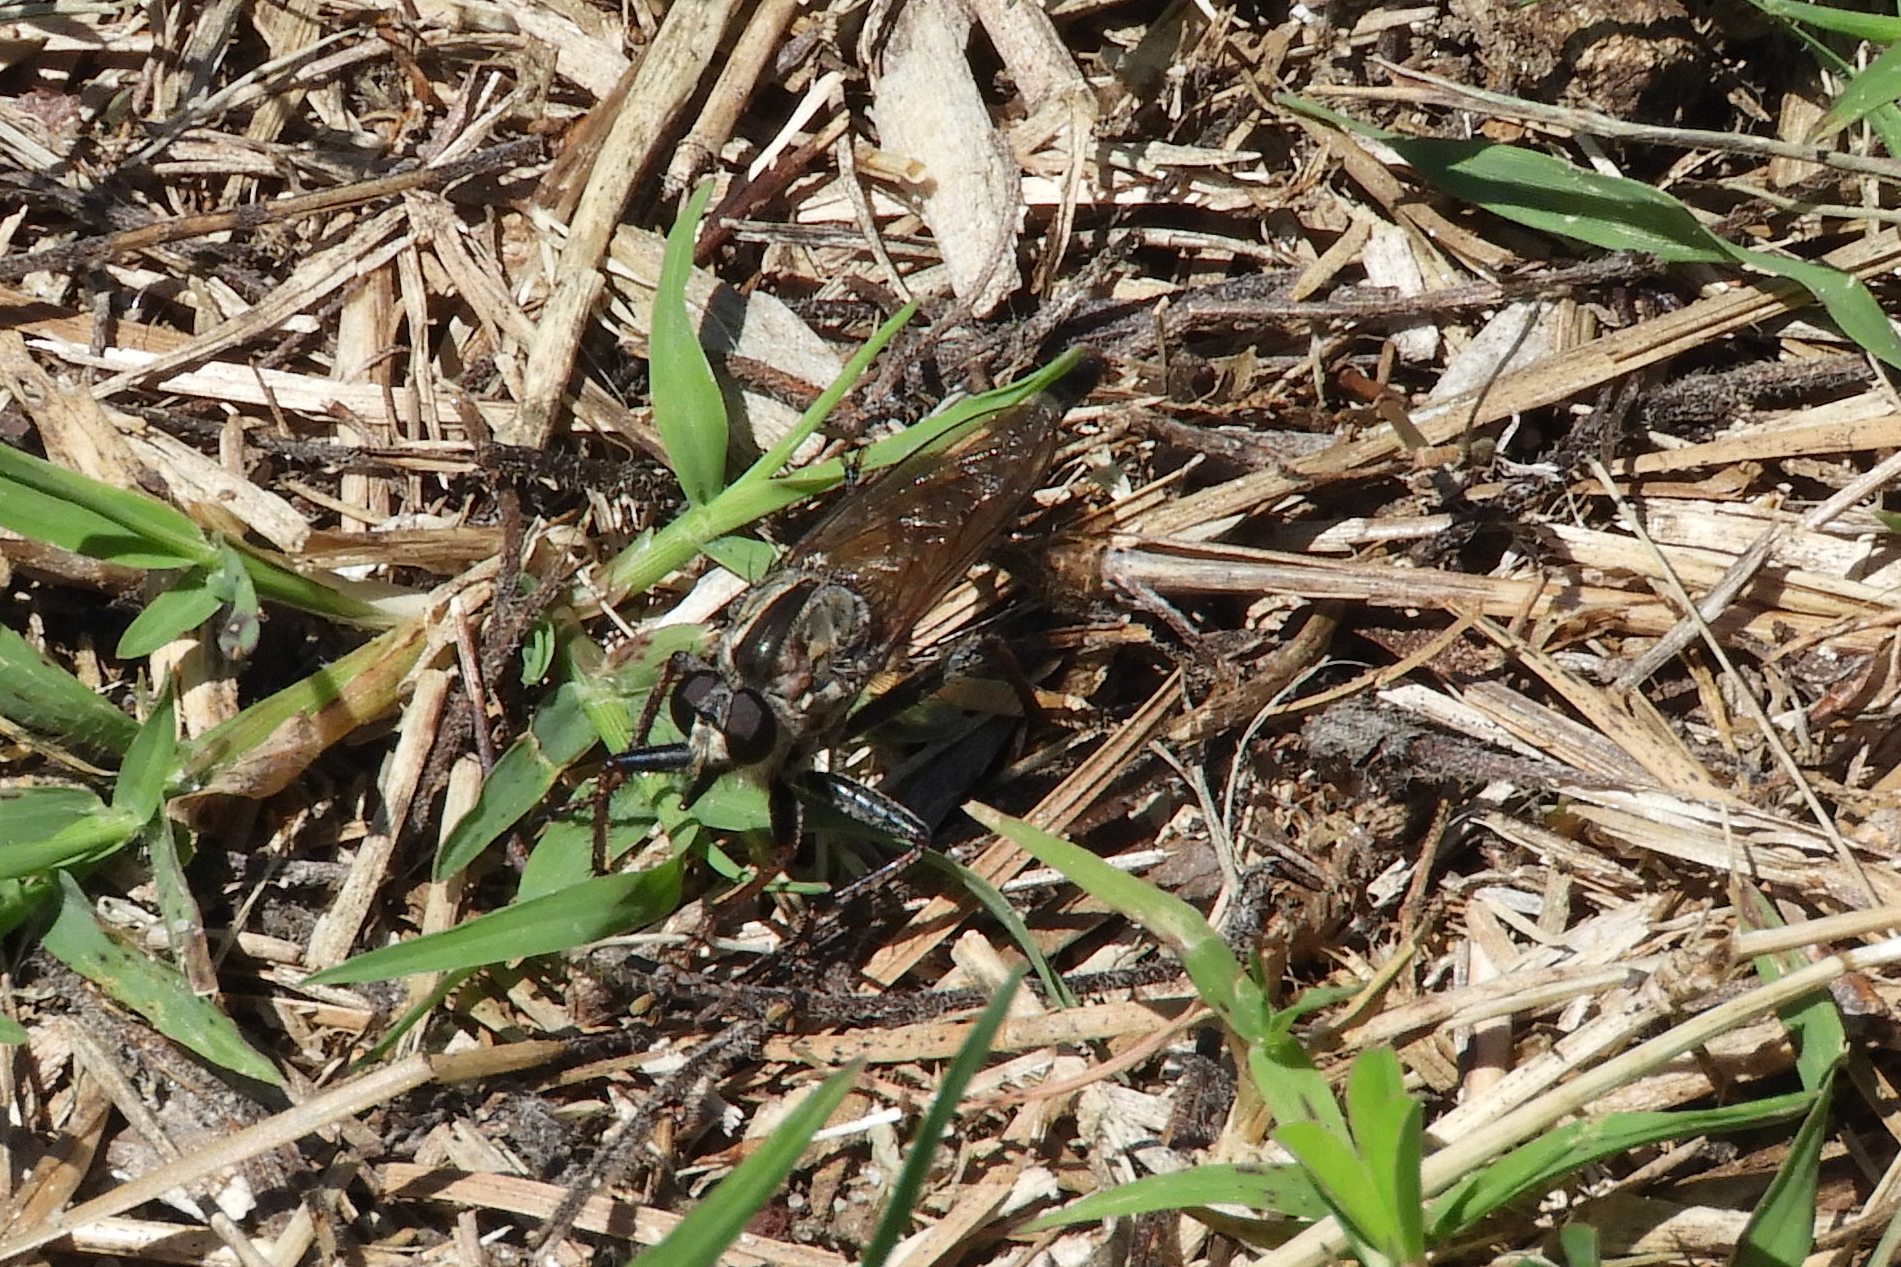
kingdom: Animalia
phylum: Arthropoda
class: Insecta
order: Diptera
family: Asilidae
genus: Proctacanthus
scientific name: Proctacanthus brevipennis
